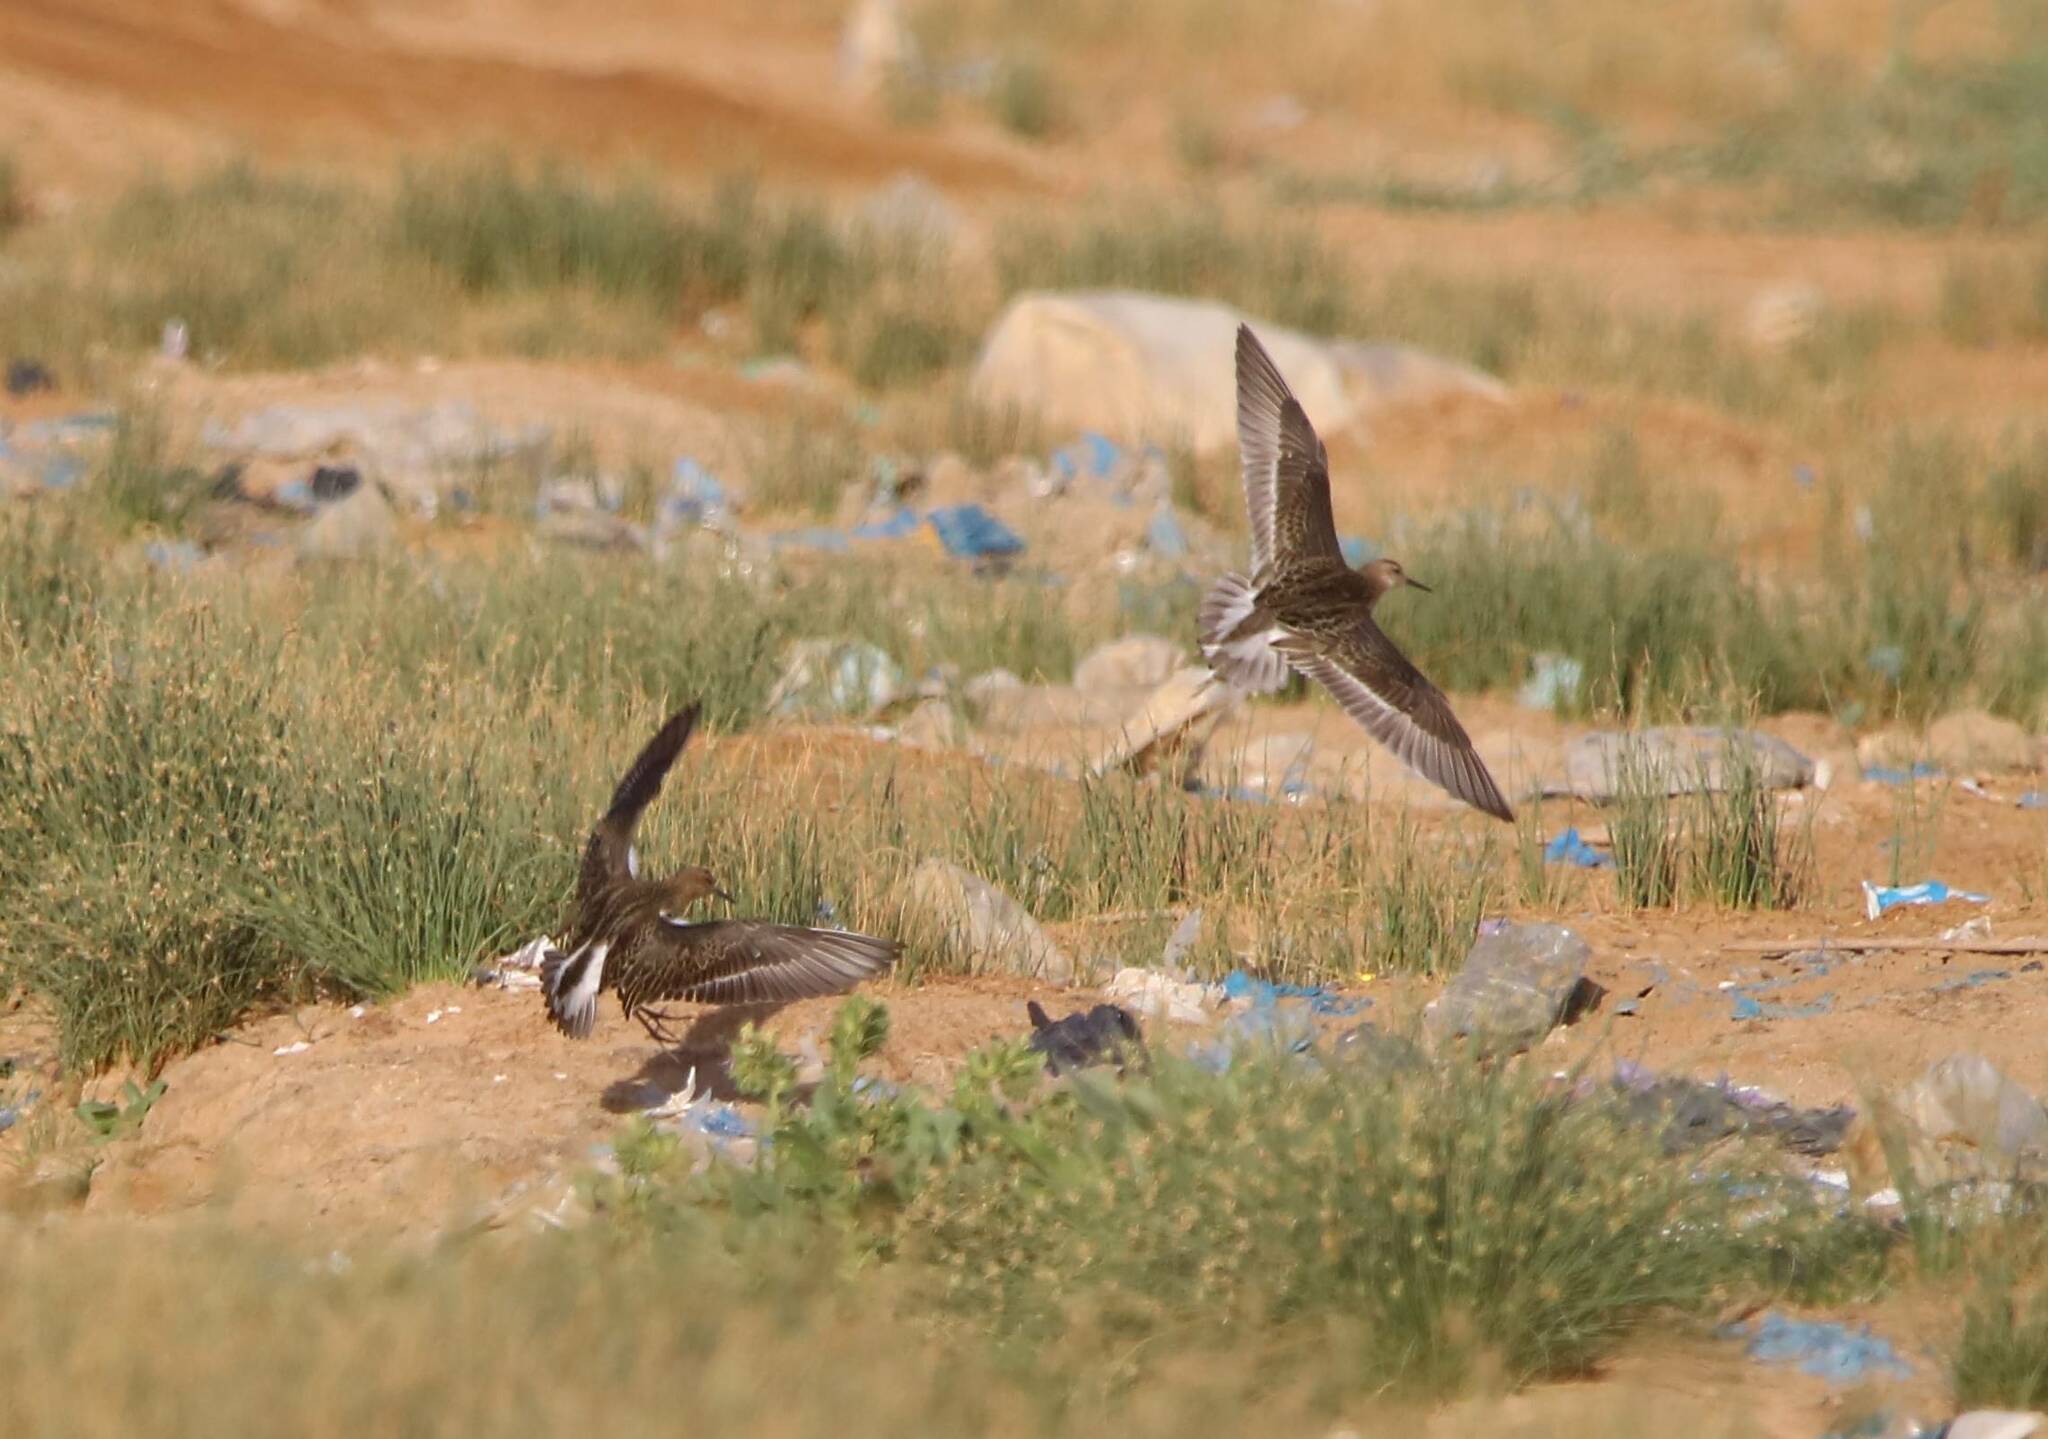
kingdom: Animalia
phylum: Chordata
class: Aves
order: Charadriiformes
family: Scolopacidae
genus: Calidris
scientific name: Calidris pugnax
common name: Ruff
